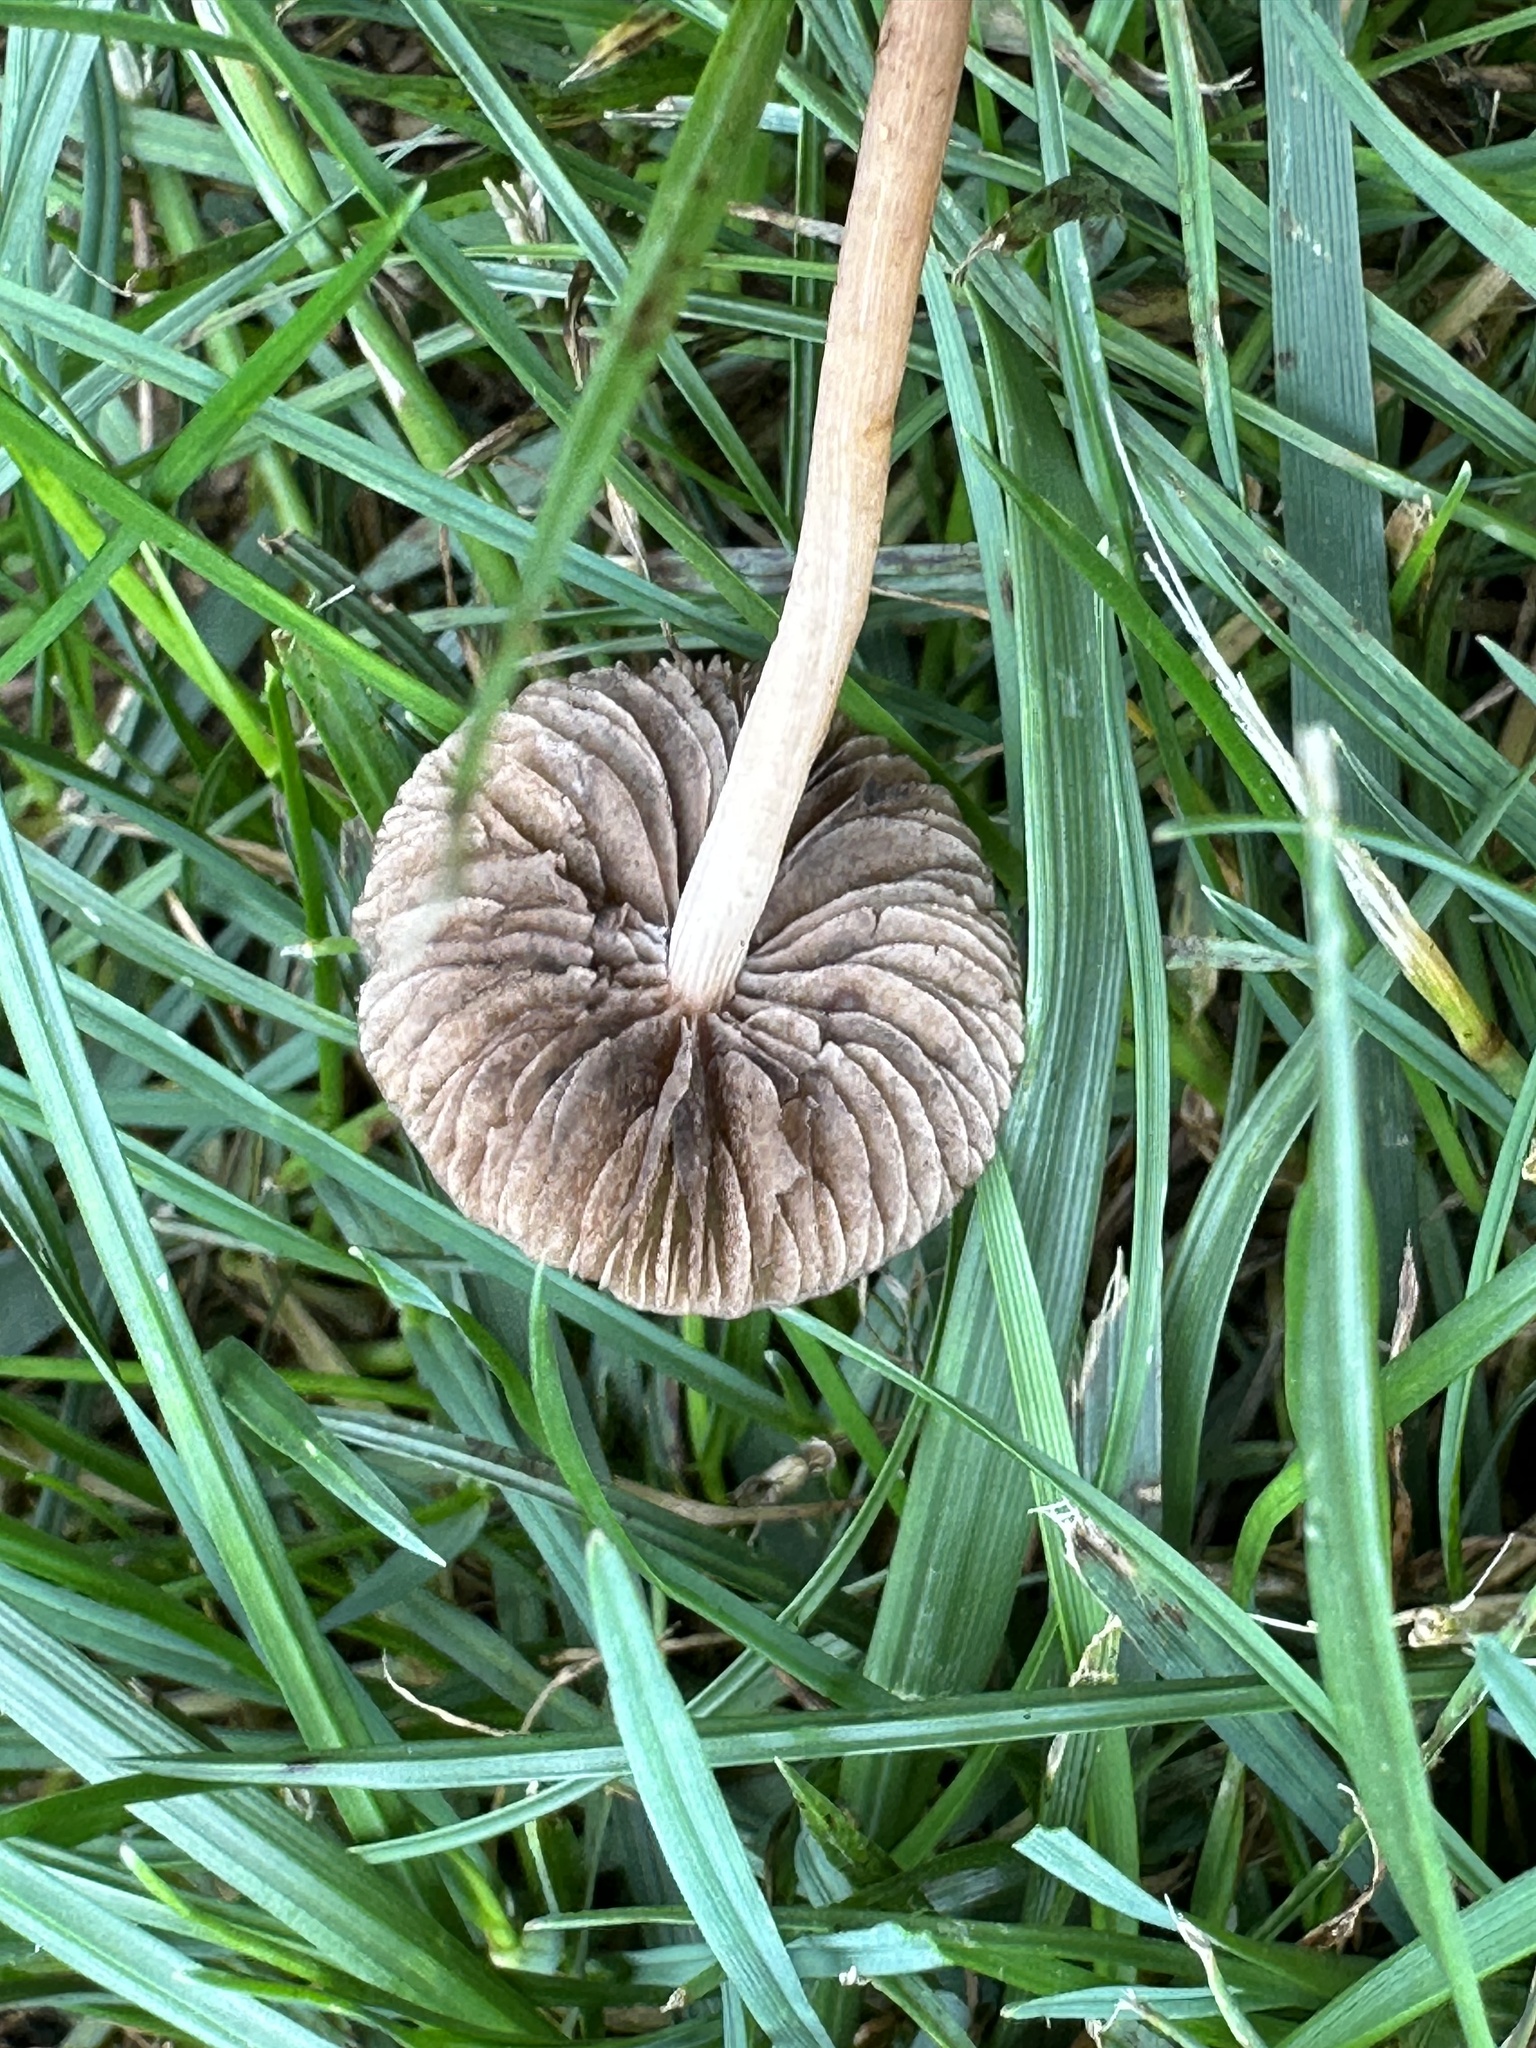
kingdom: Fungi
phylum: Basidiomycota
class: Agaricomycetes
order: Agaricales
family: Bolbitiaceae
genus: Panaeolina
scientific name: Panaeolina foenisecii
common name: Brown hay cap
